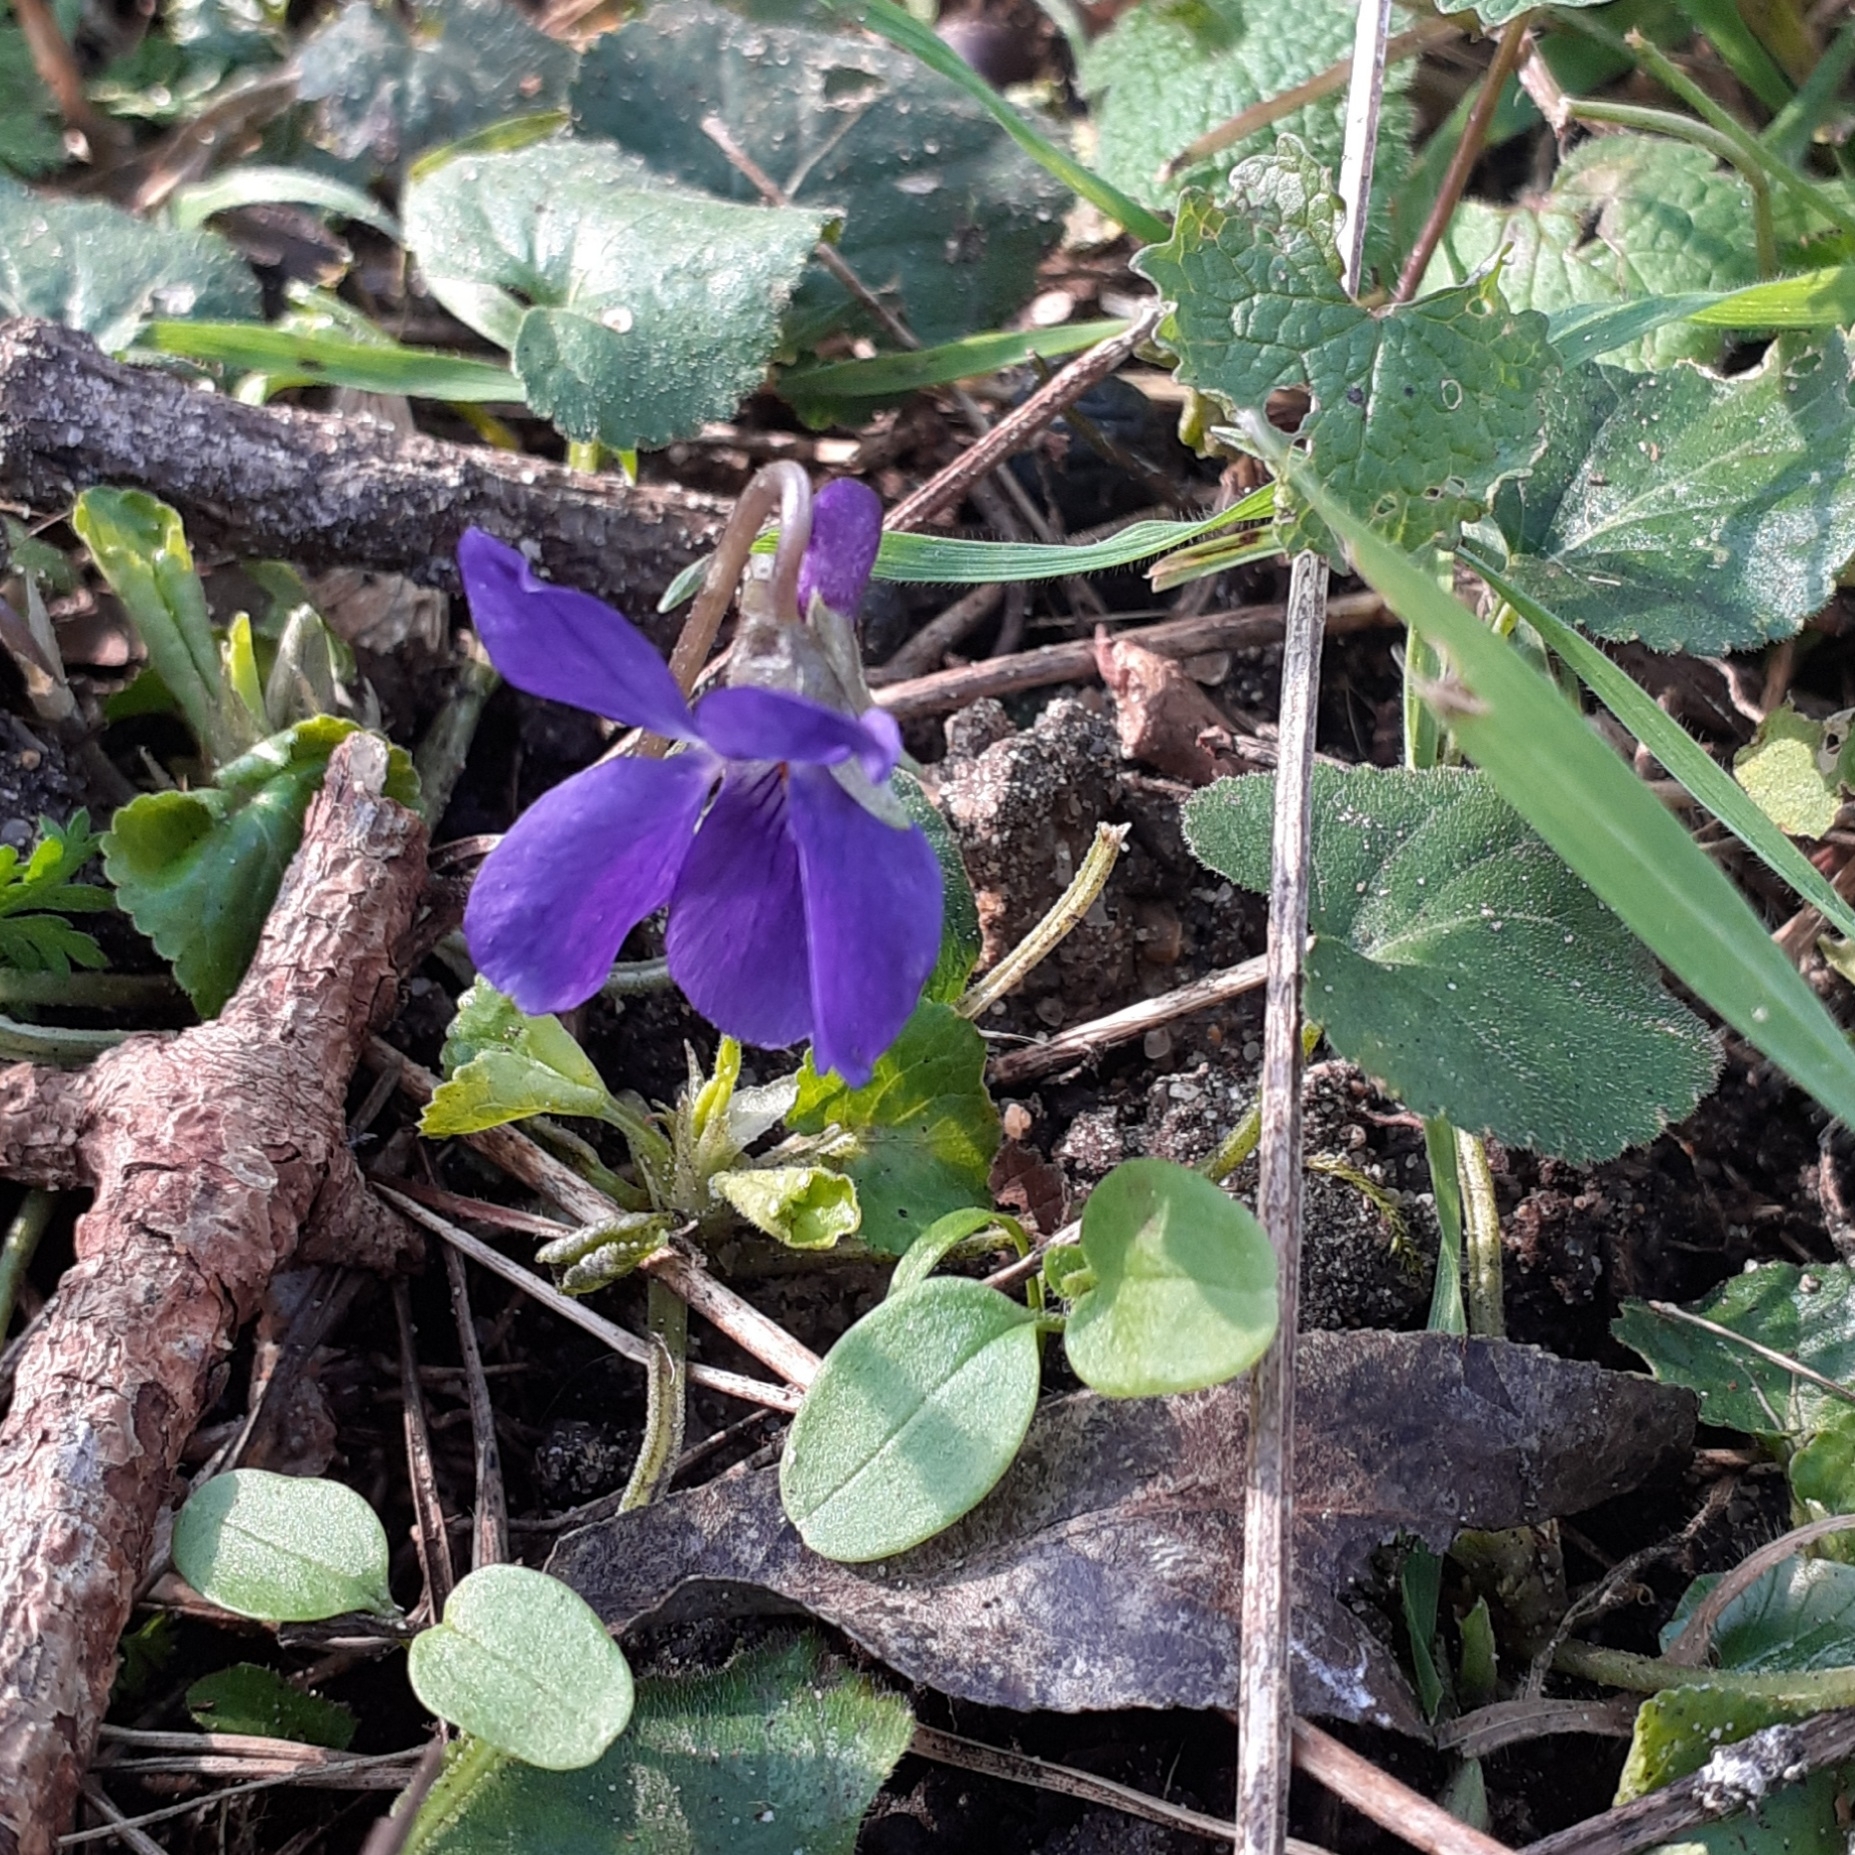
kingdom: Plantae
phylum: Tracheophyta
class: Magnoliopsida
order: Malpighiales
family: Violaceae
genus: Viola
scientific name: Viola odorata
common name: Sweet violet
